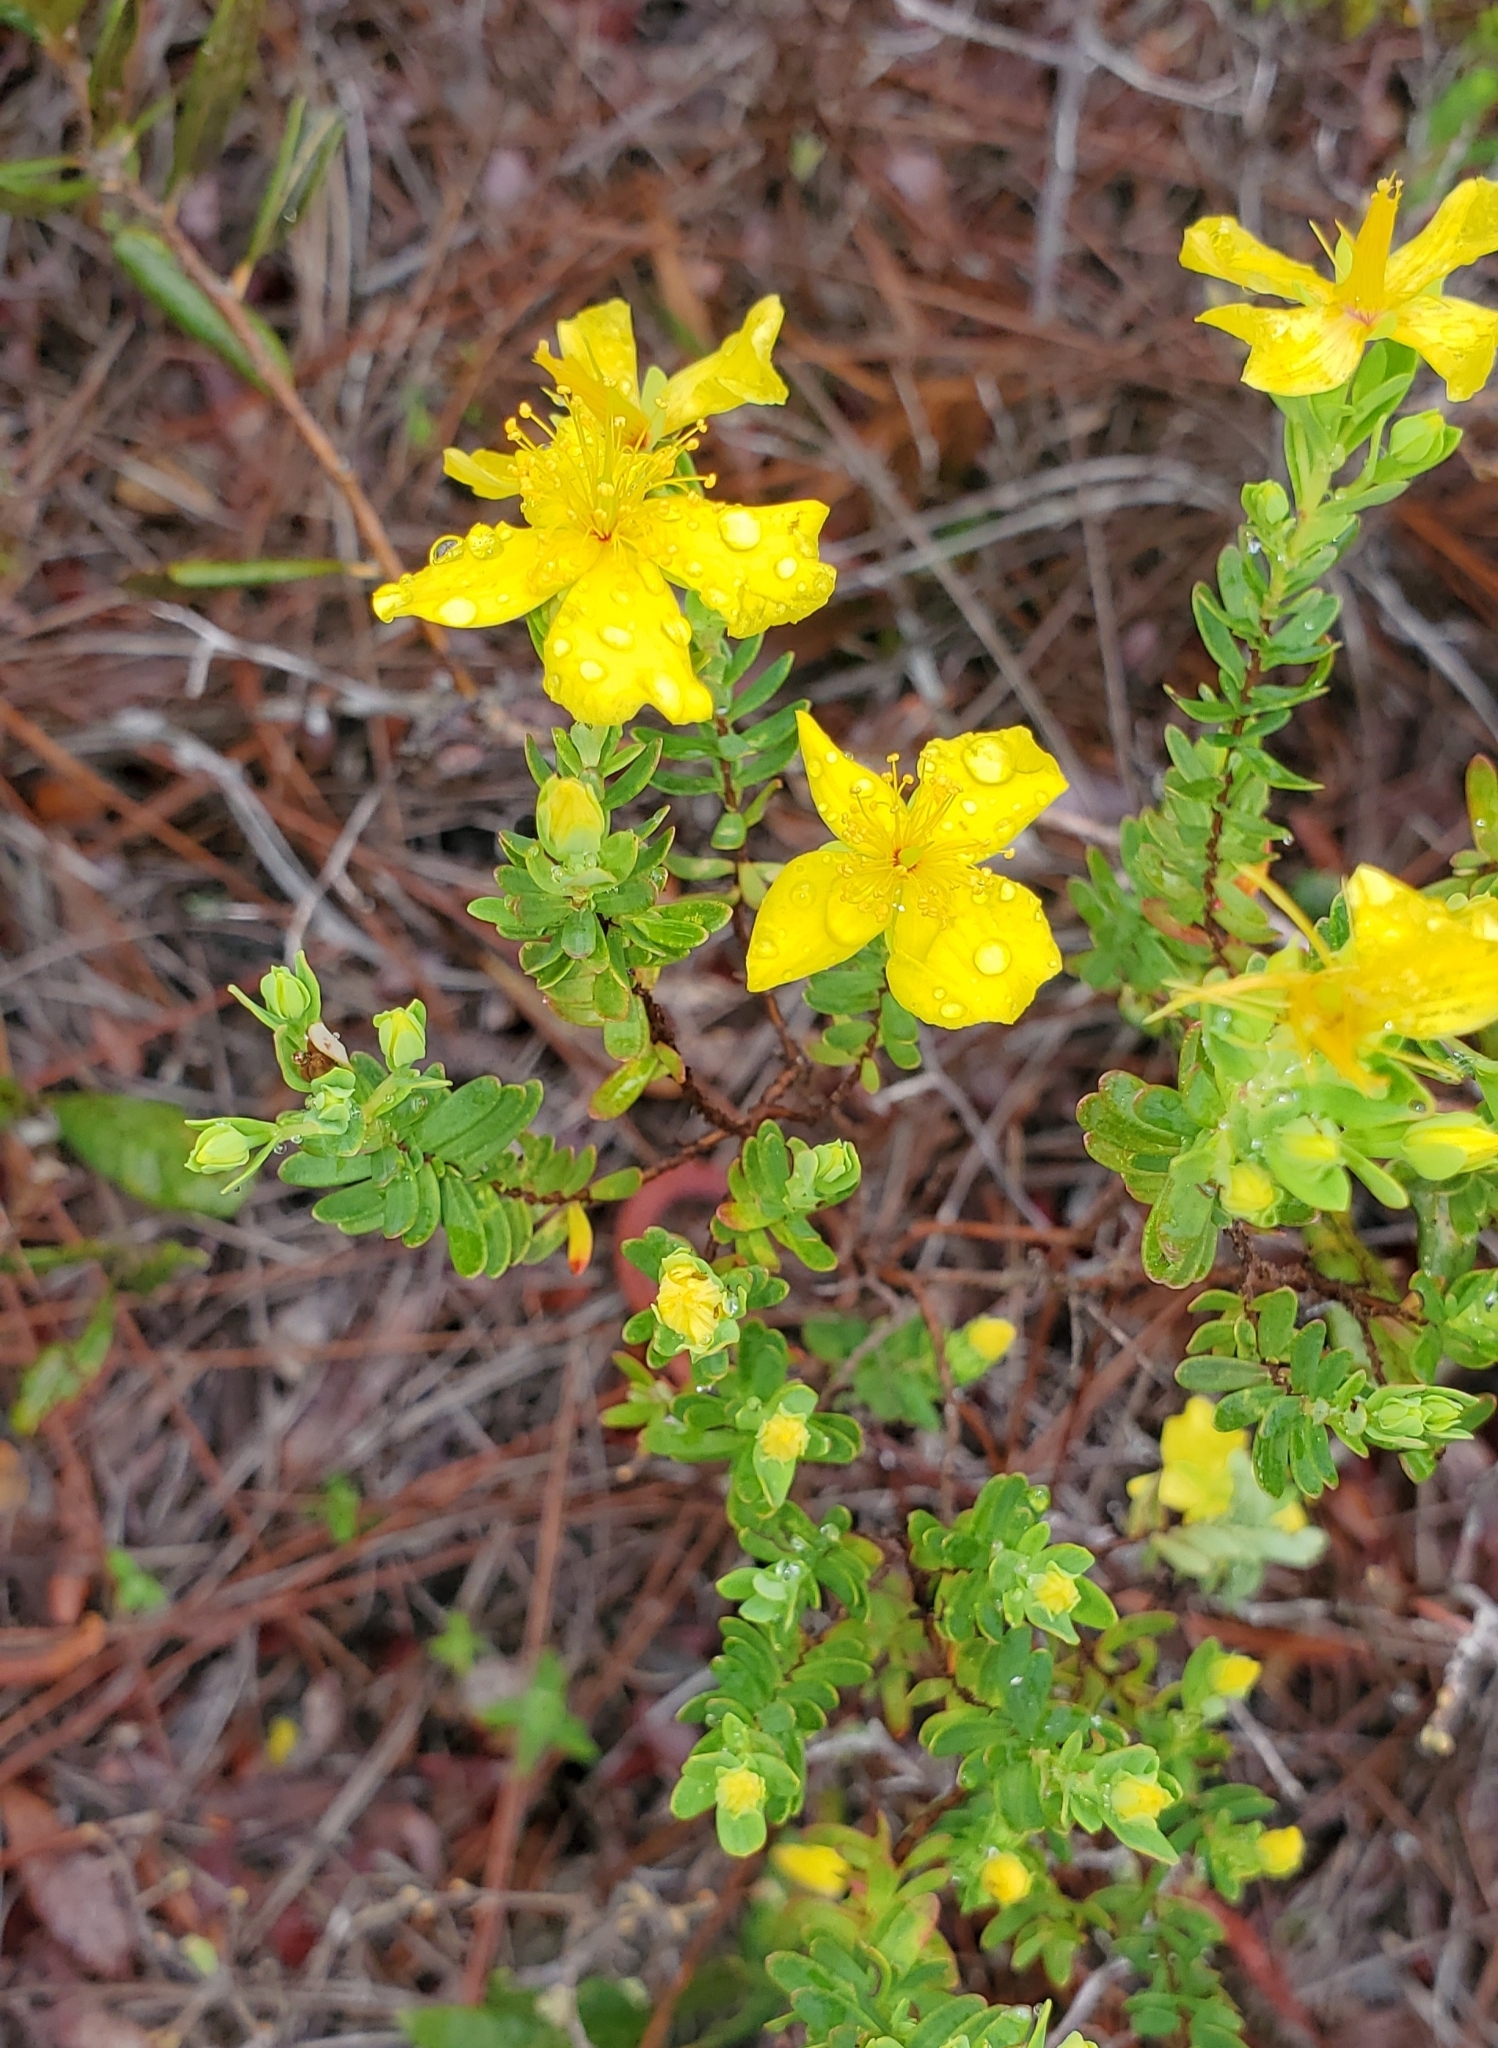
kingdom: Plantae
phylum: Tracheophyta
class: Magnoliopsida
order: Malpighiales
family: Hypericaceae
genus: Hypericum
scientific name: Hypericum microsepalum
